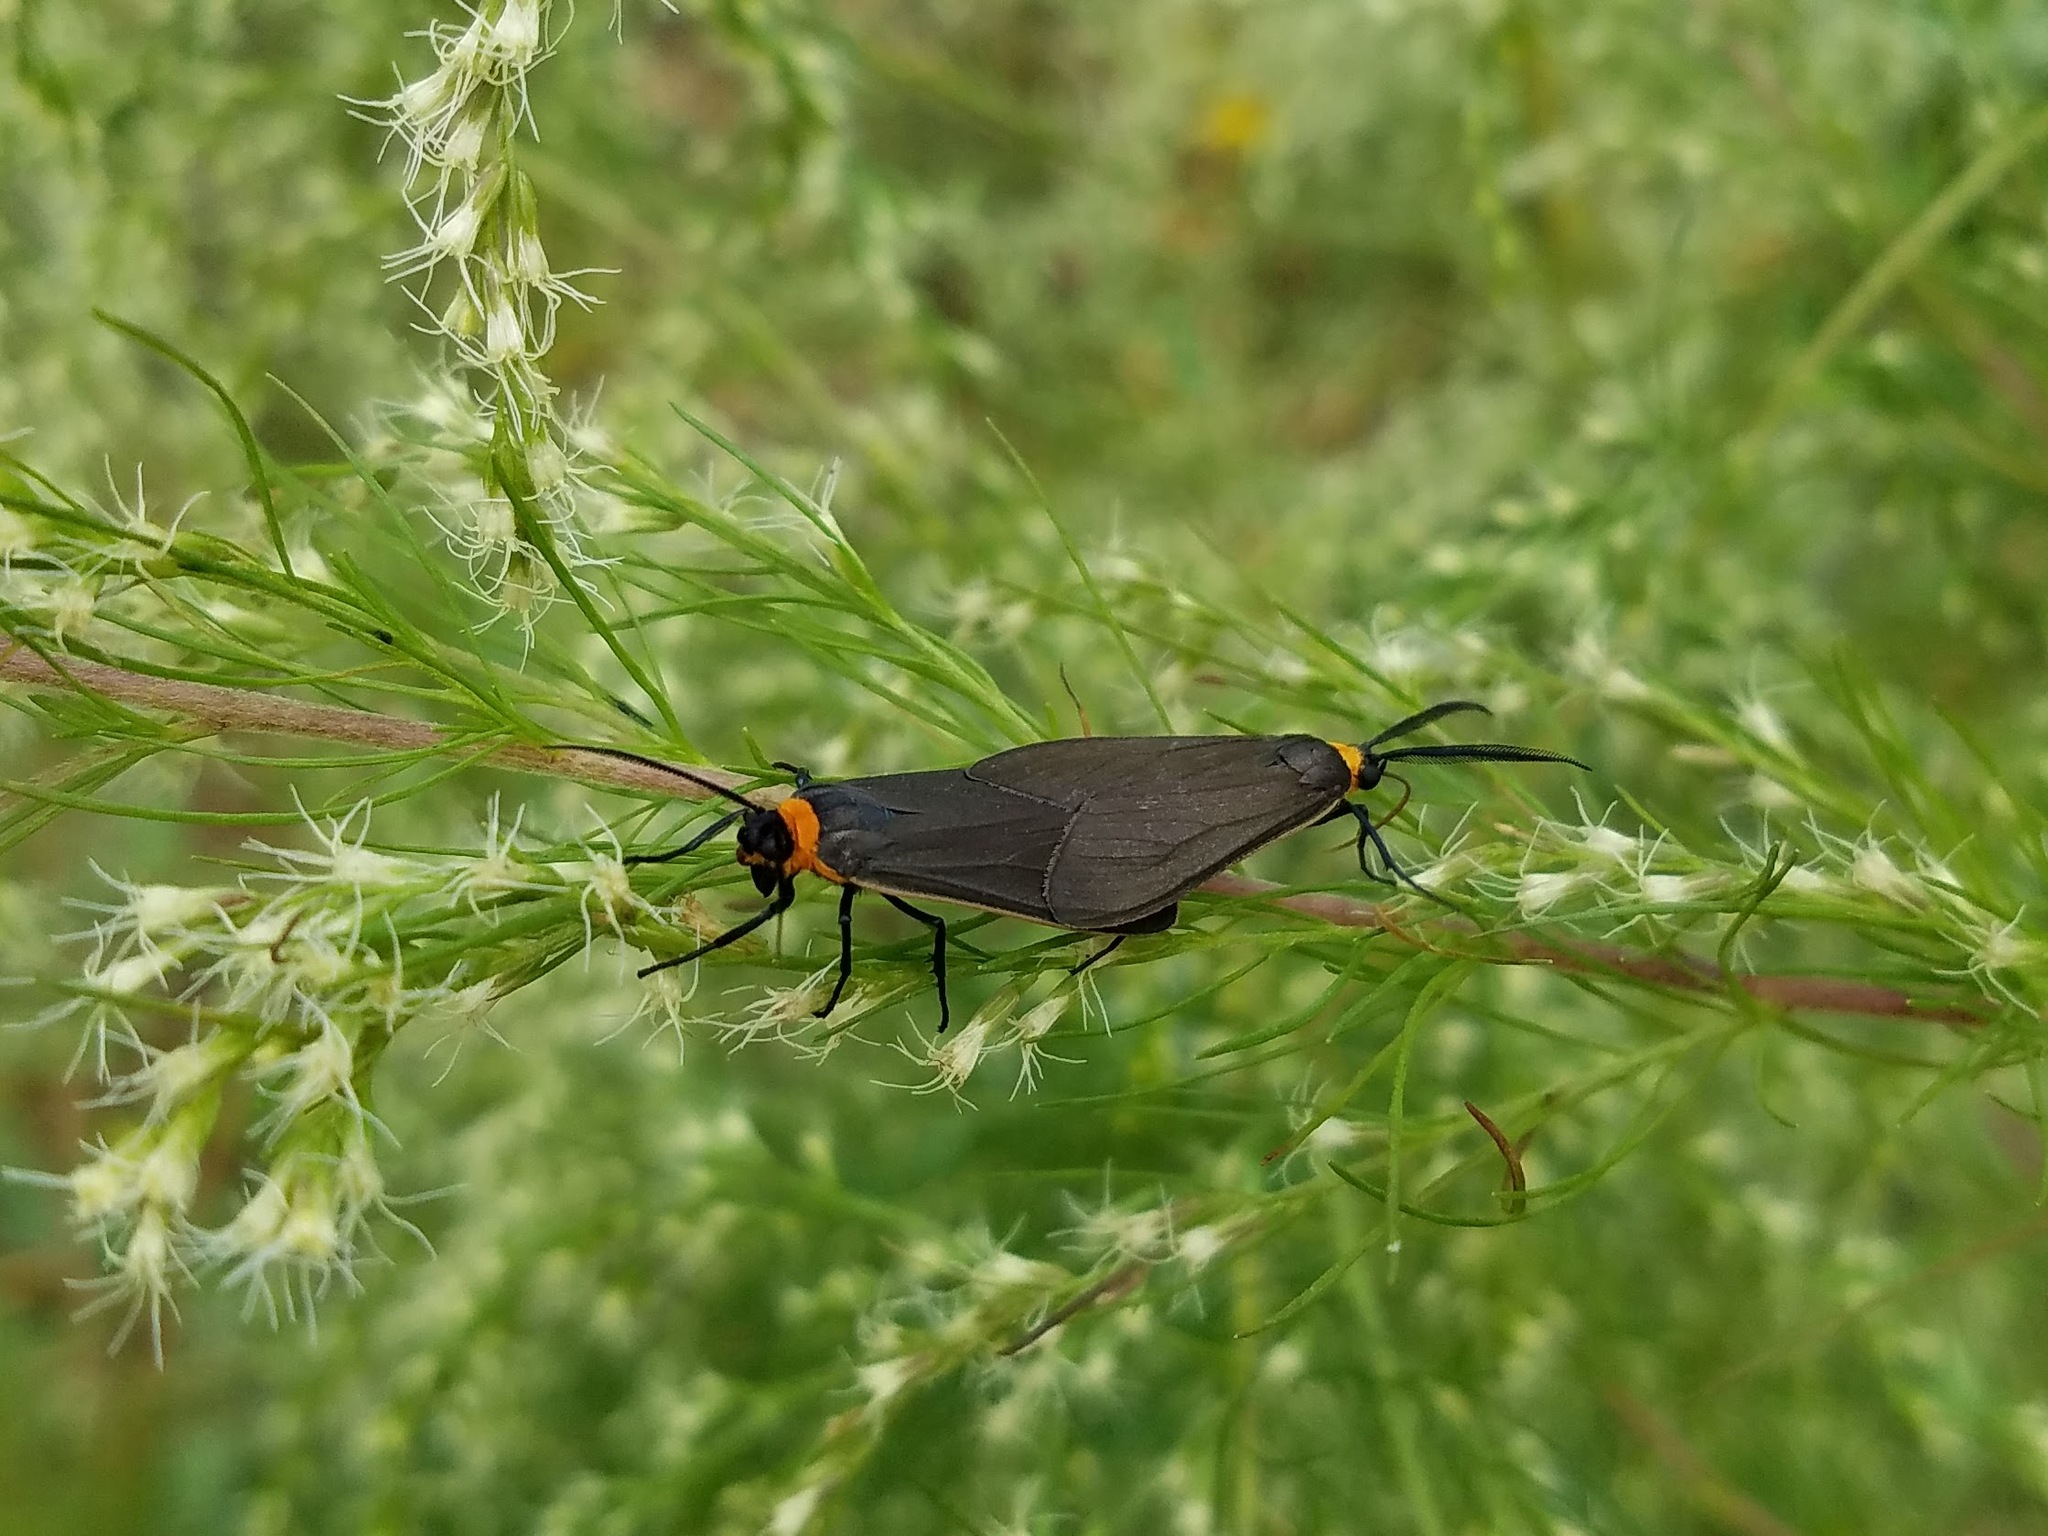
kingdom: Animalia
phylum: Arthropoda
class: Insecta
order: Lepidoptera
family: Erebidae
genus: Cisseps
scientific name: Cisseps fulvicollis
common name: Yellow-collared scape moth
